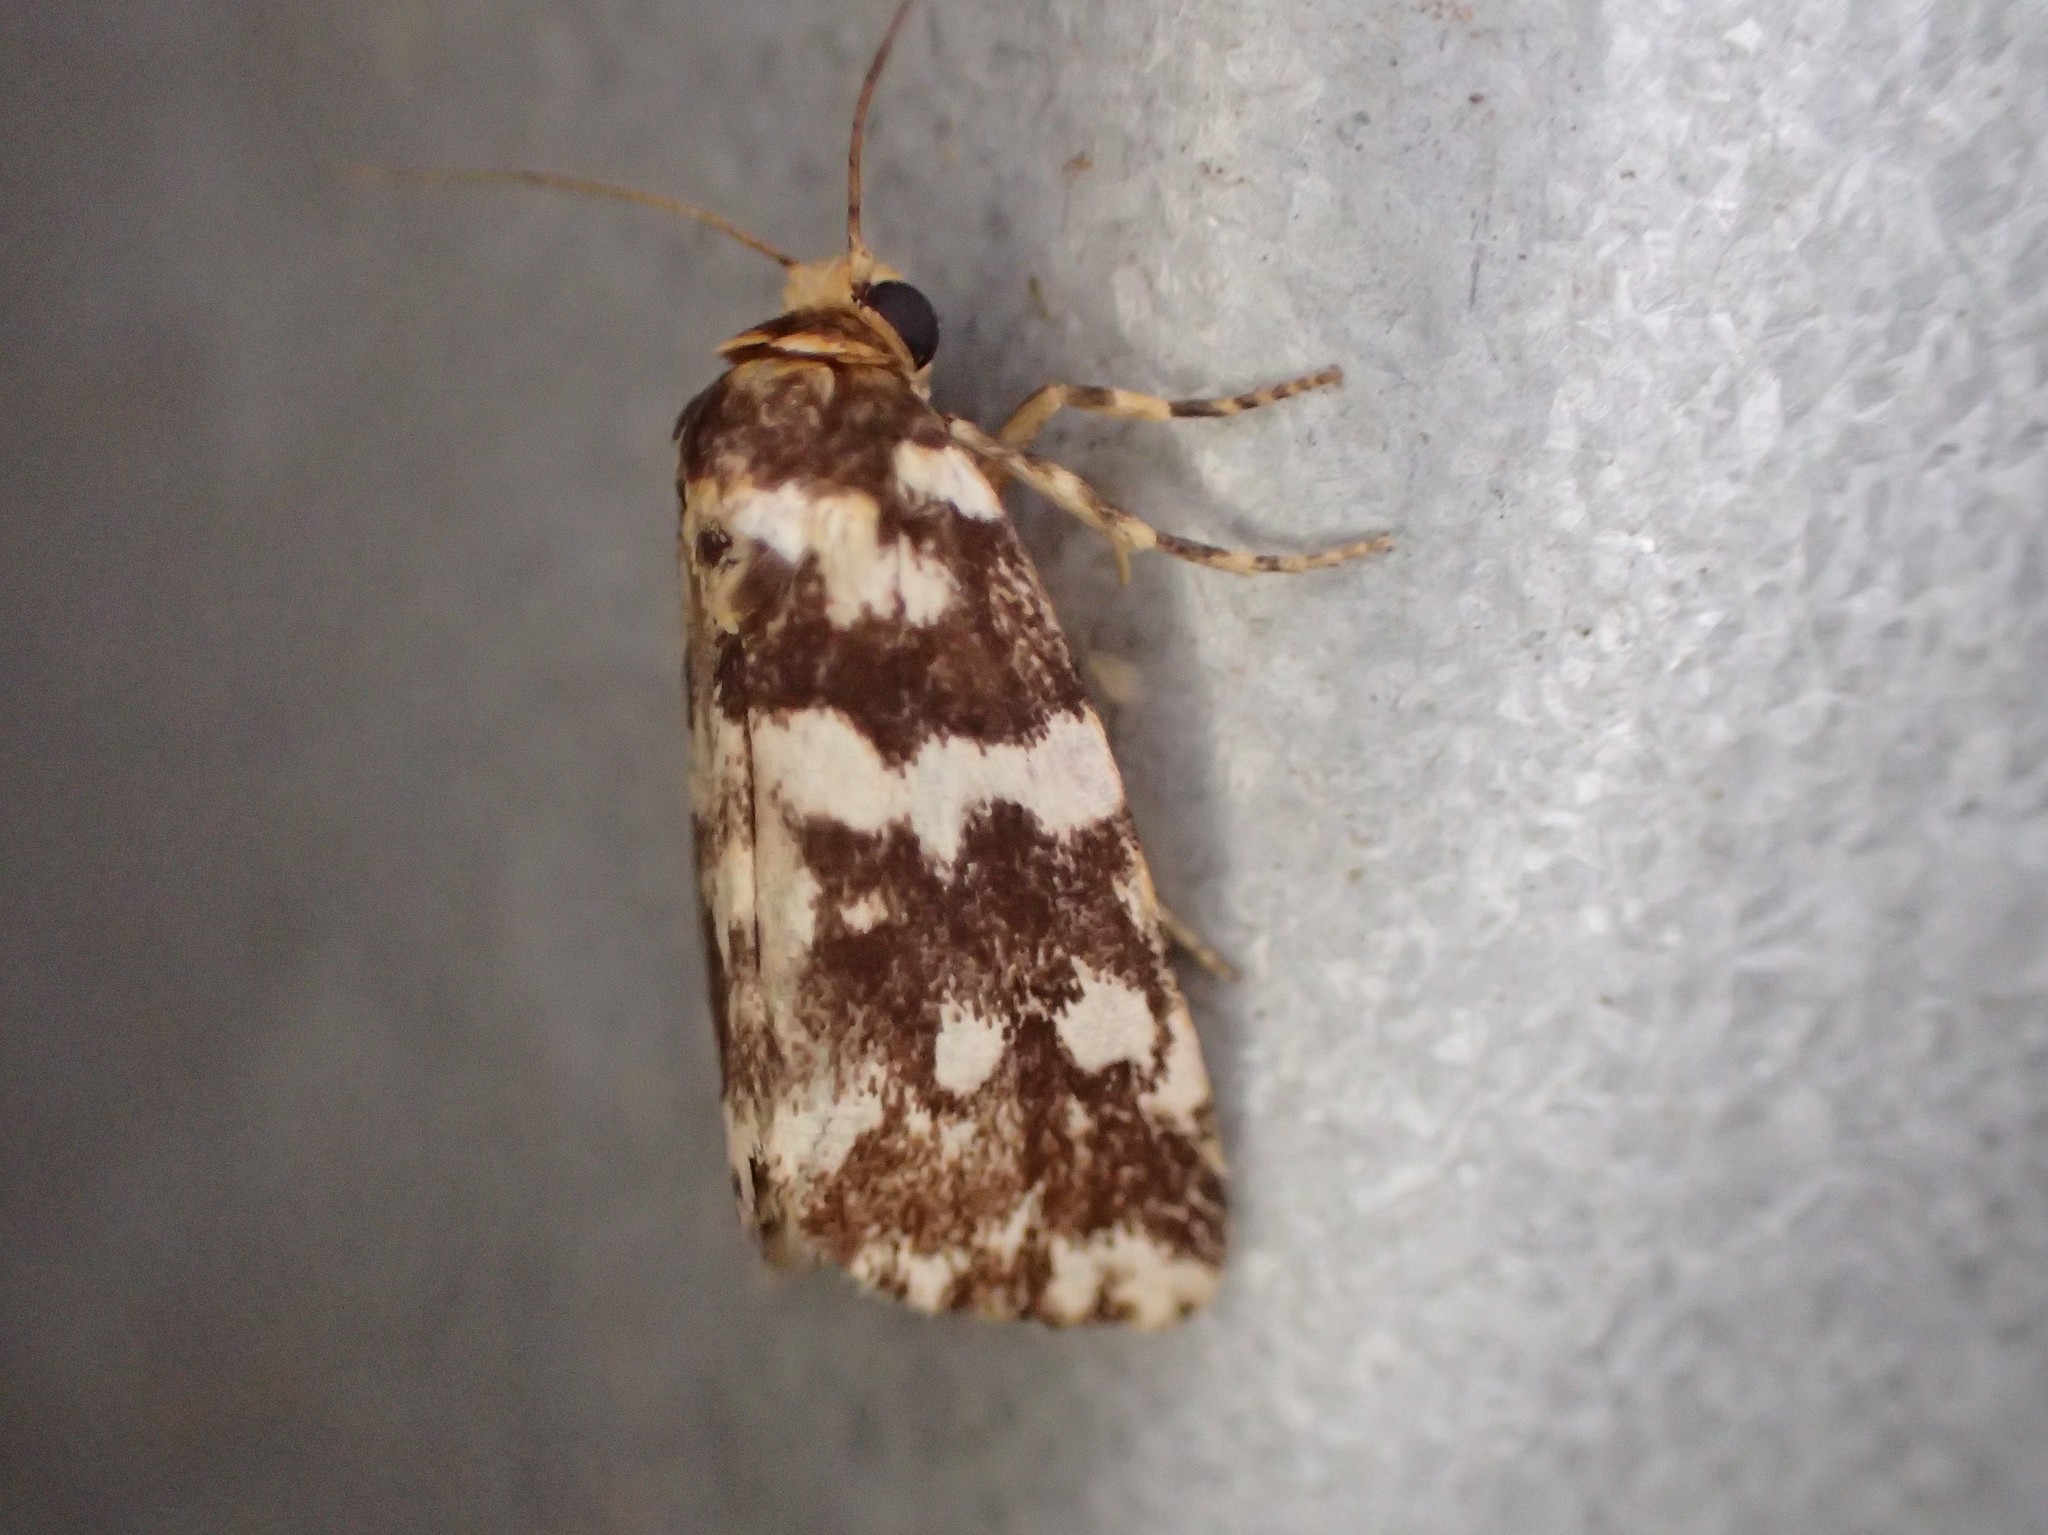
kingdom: Animalia
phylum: Arthropoda
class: Insecta
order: Lepidoptera
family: Noctuidae
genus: Xenopseustis
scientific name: Xenopseustis poecilastis
